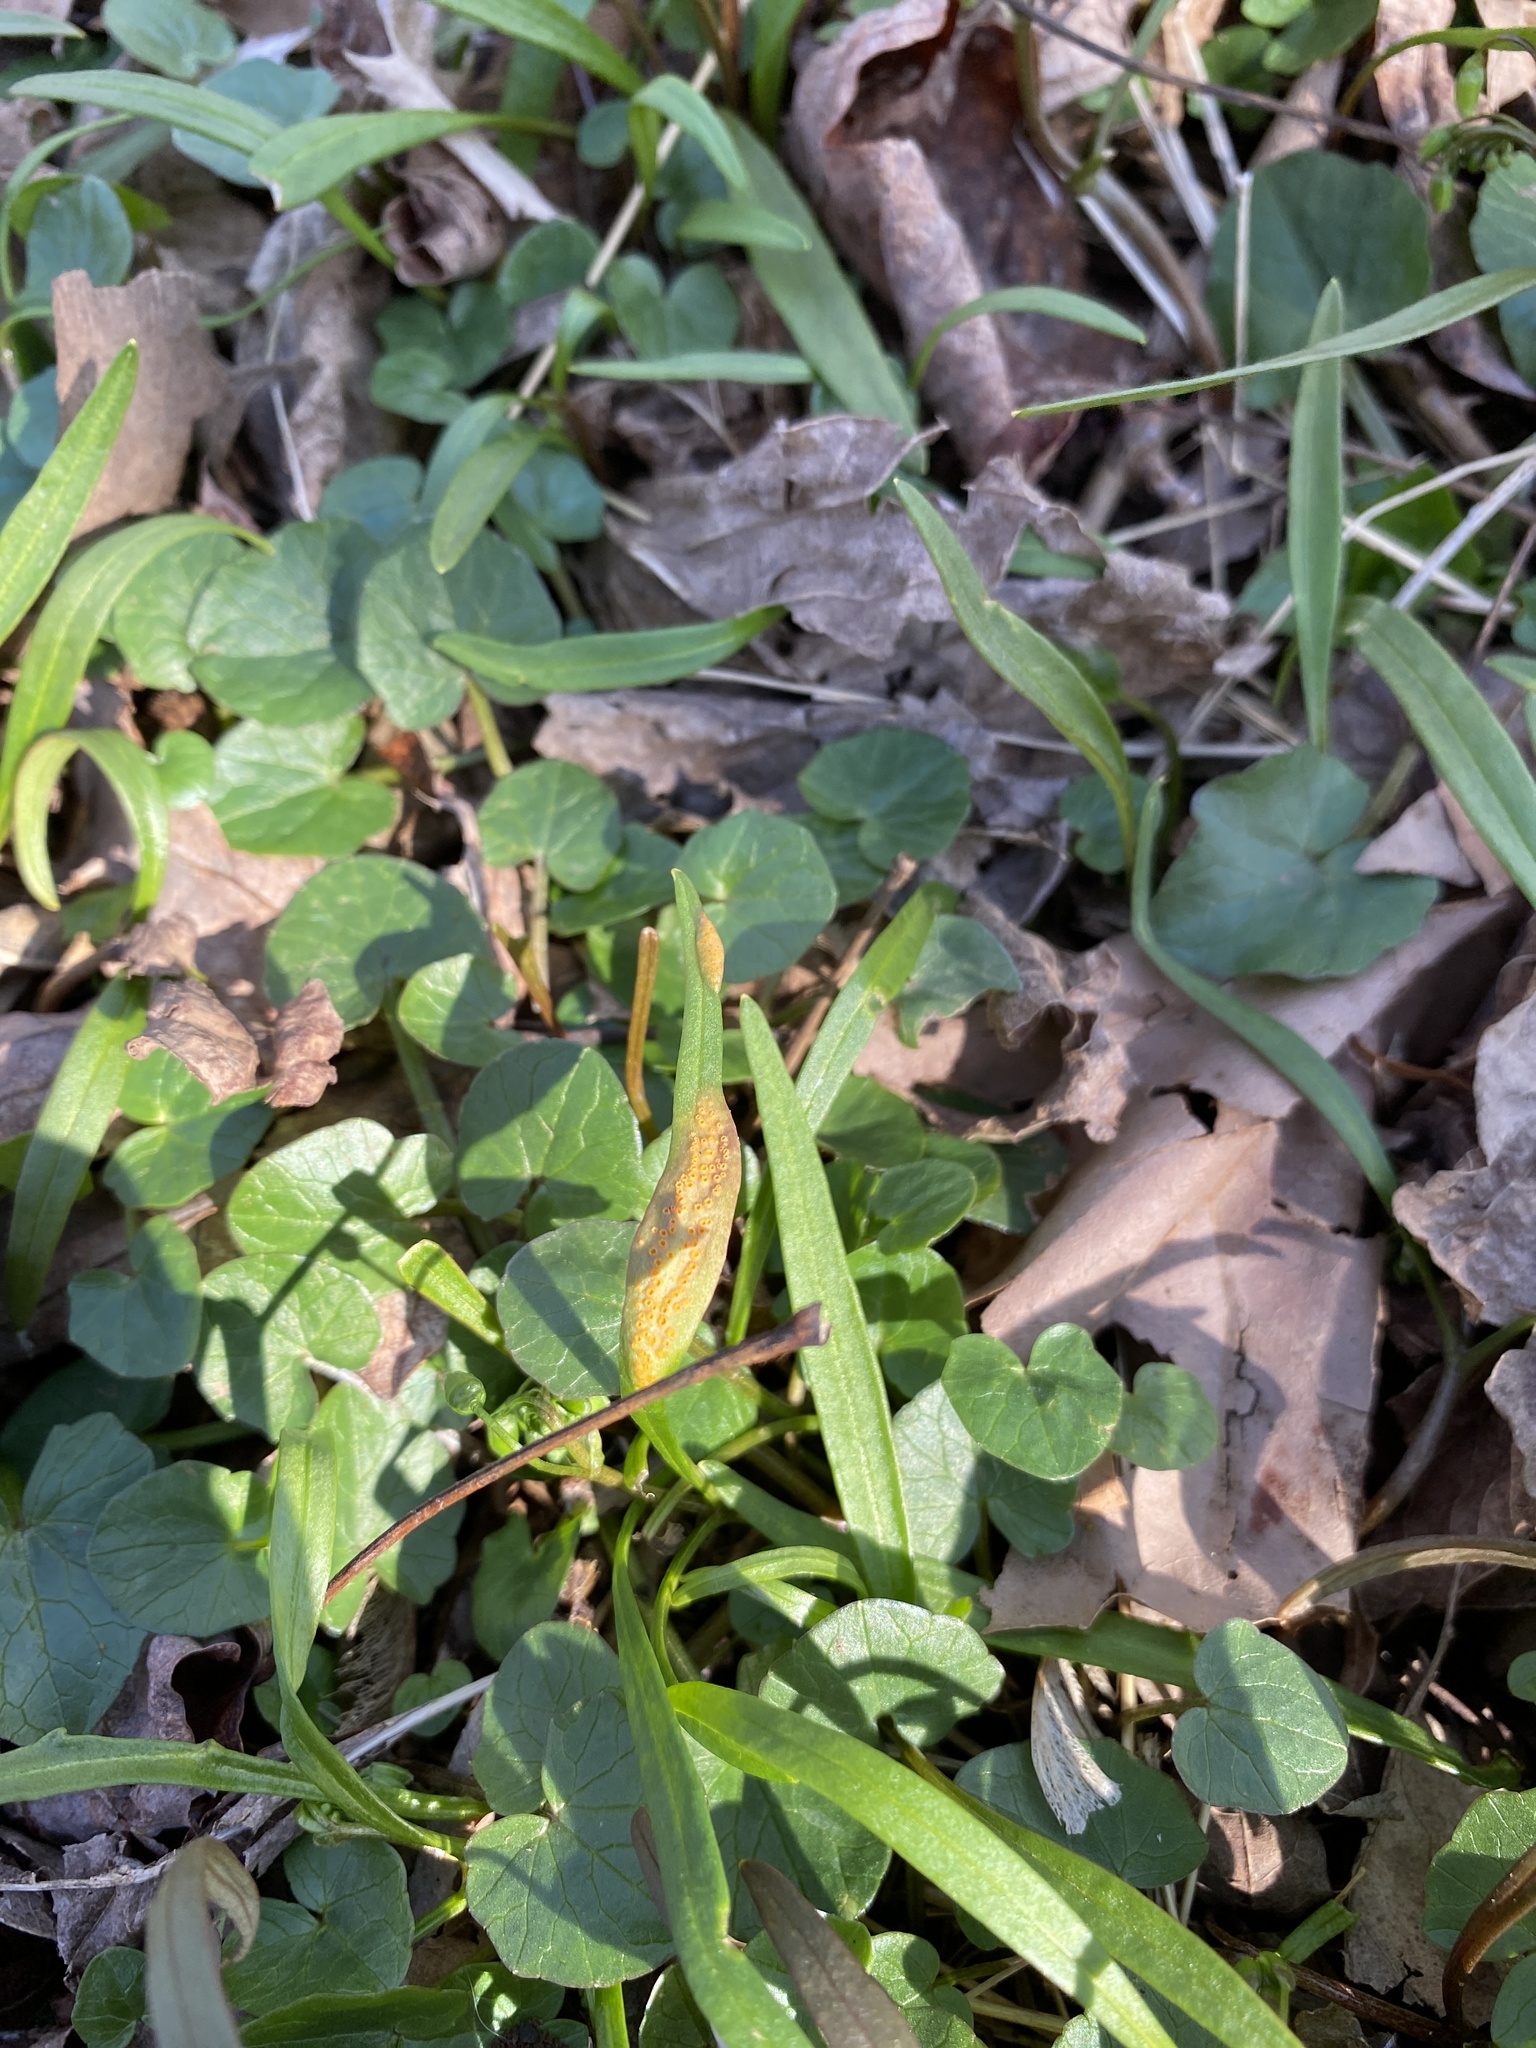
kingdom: Fungi
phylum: Basidiomycota
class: Pucciniomycetes
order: Pucciniales
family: Pucciniaceae
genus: Puccinia
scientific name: Puccinia mariae-wilsoniae
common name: Spring beauty rust
